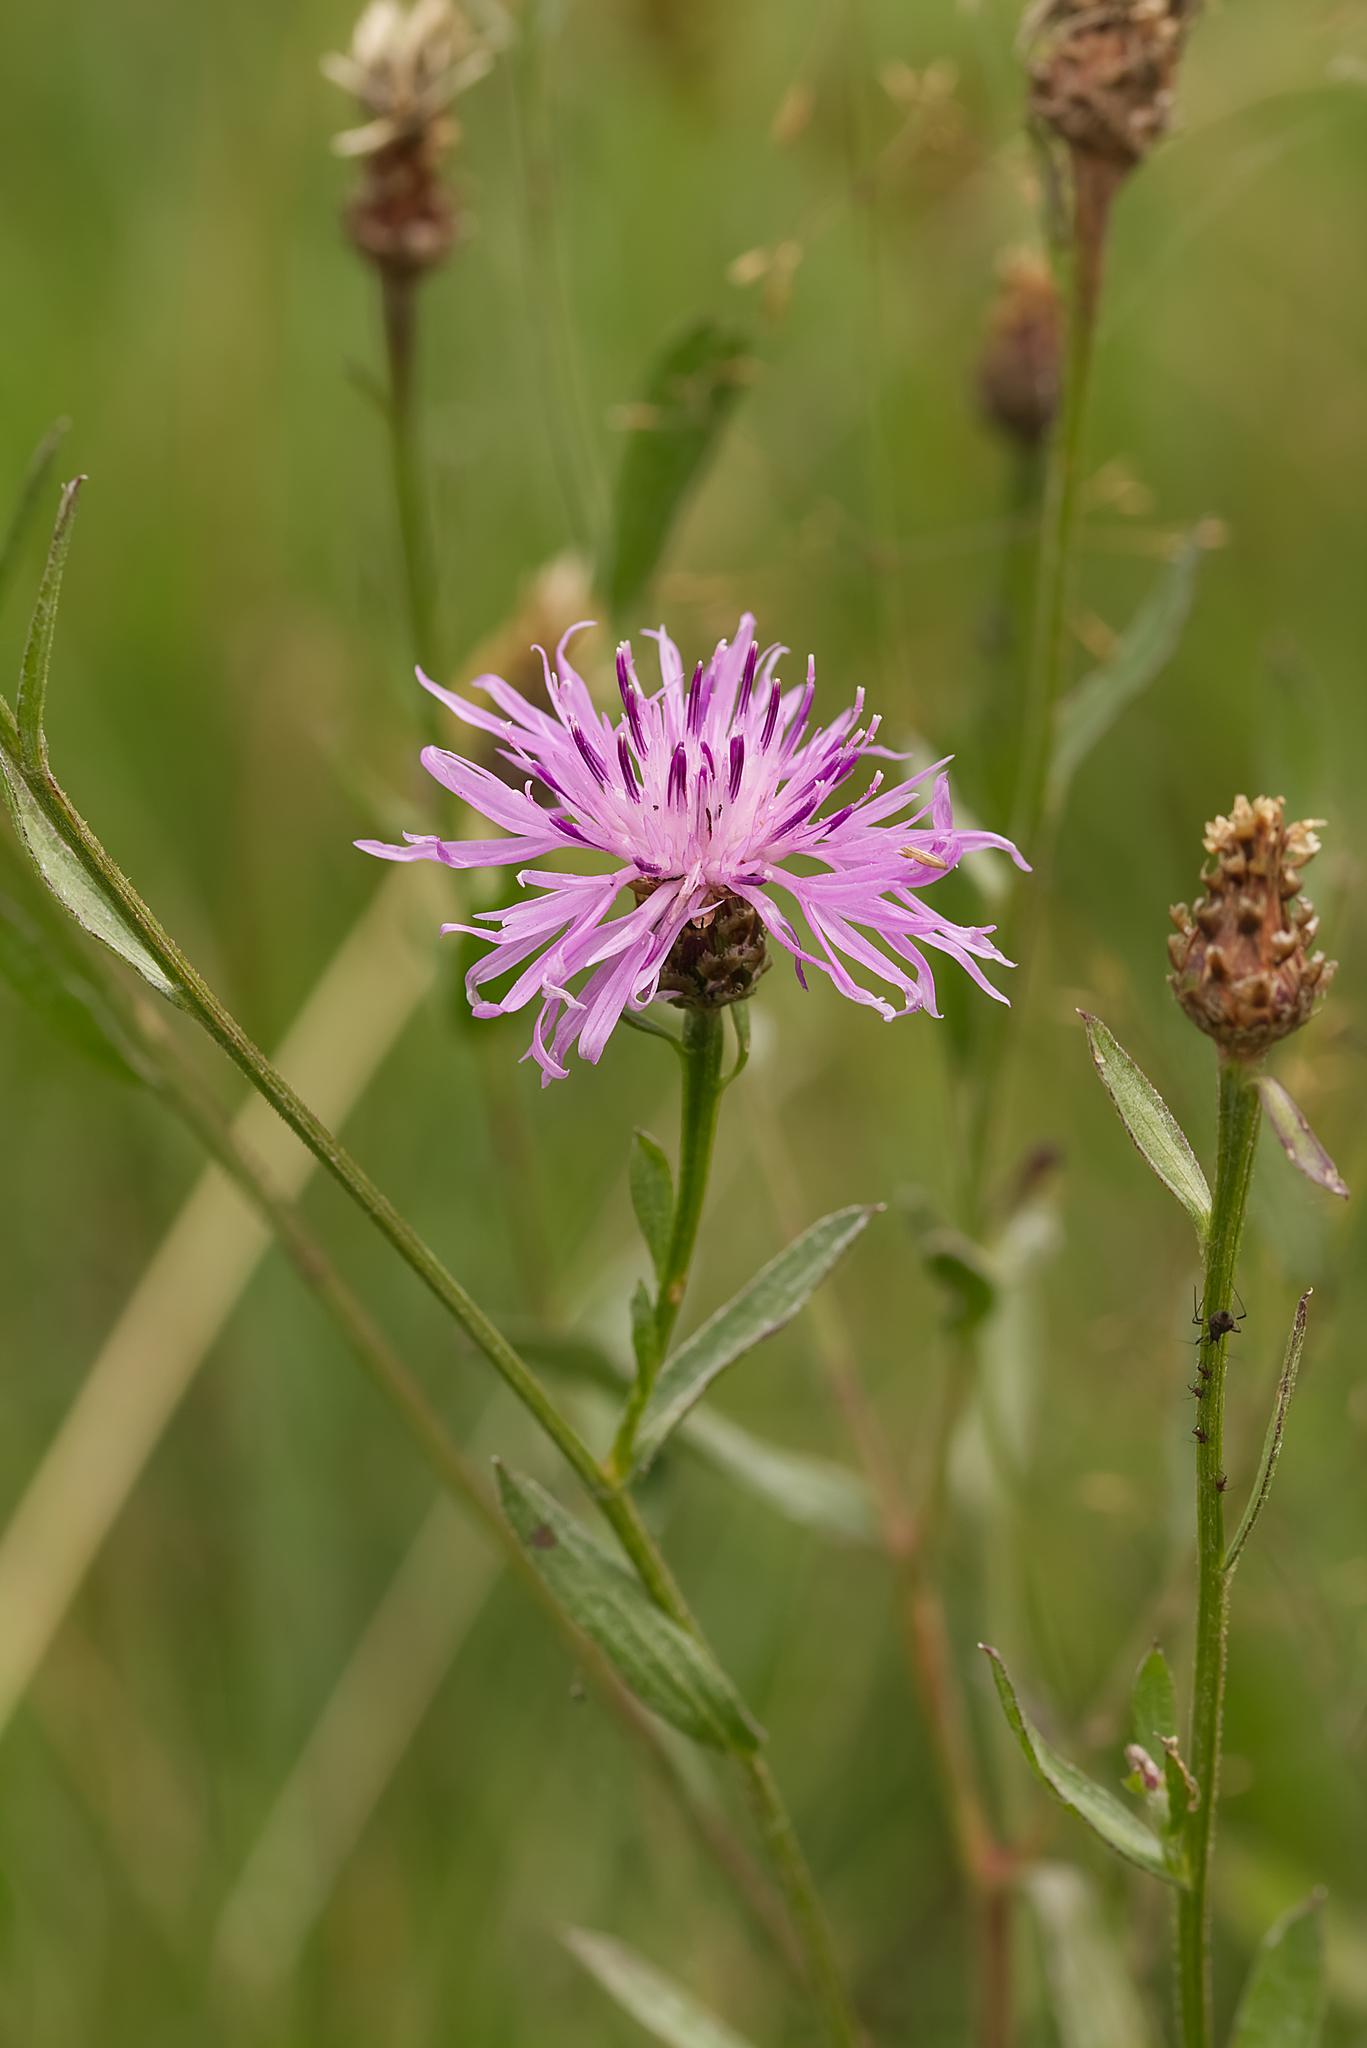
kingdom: Plantae
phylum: Tracheophyta
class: Magnoliopsida
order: Asterales
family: Asteraceae
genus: Centaurea
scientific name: Centaurea jacea
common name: Brown knapweed
